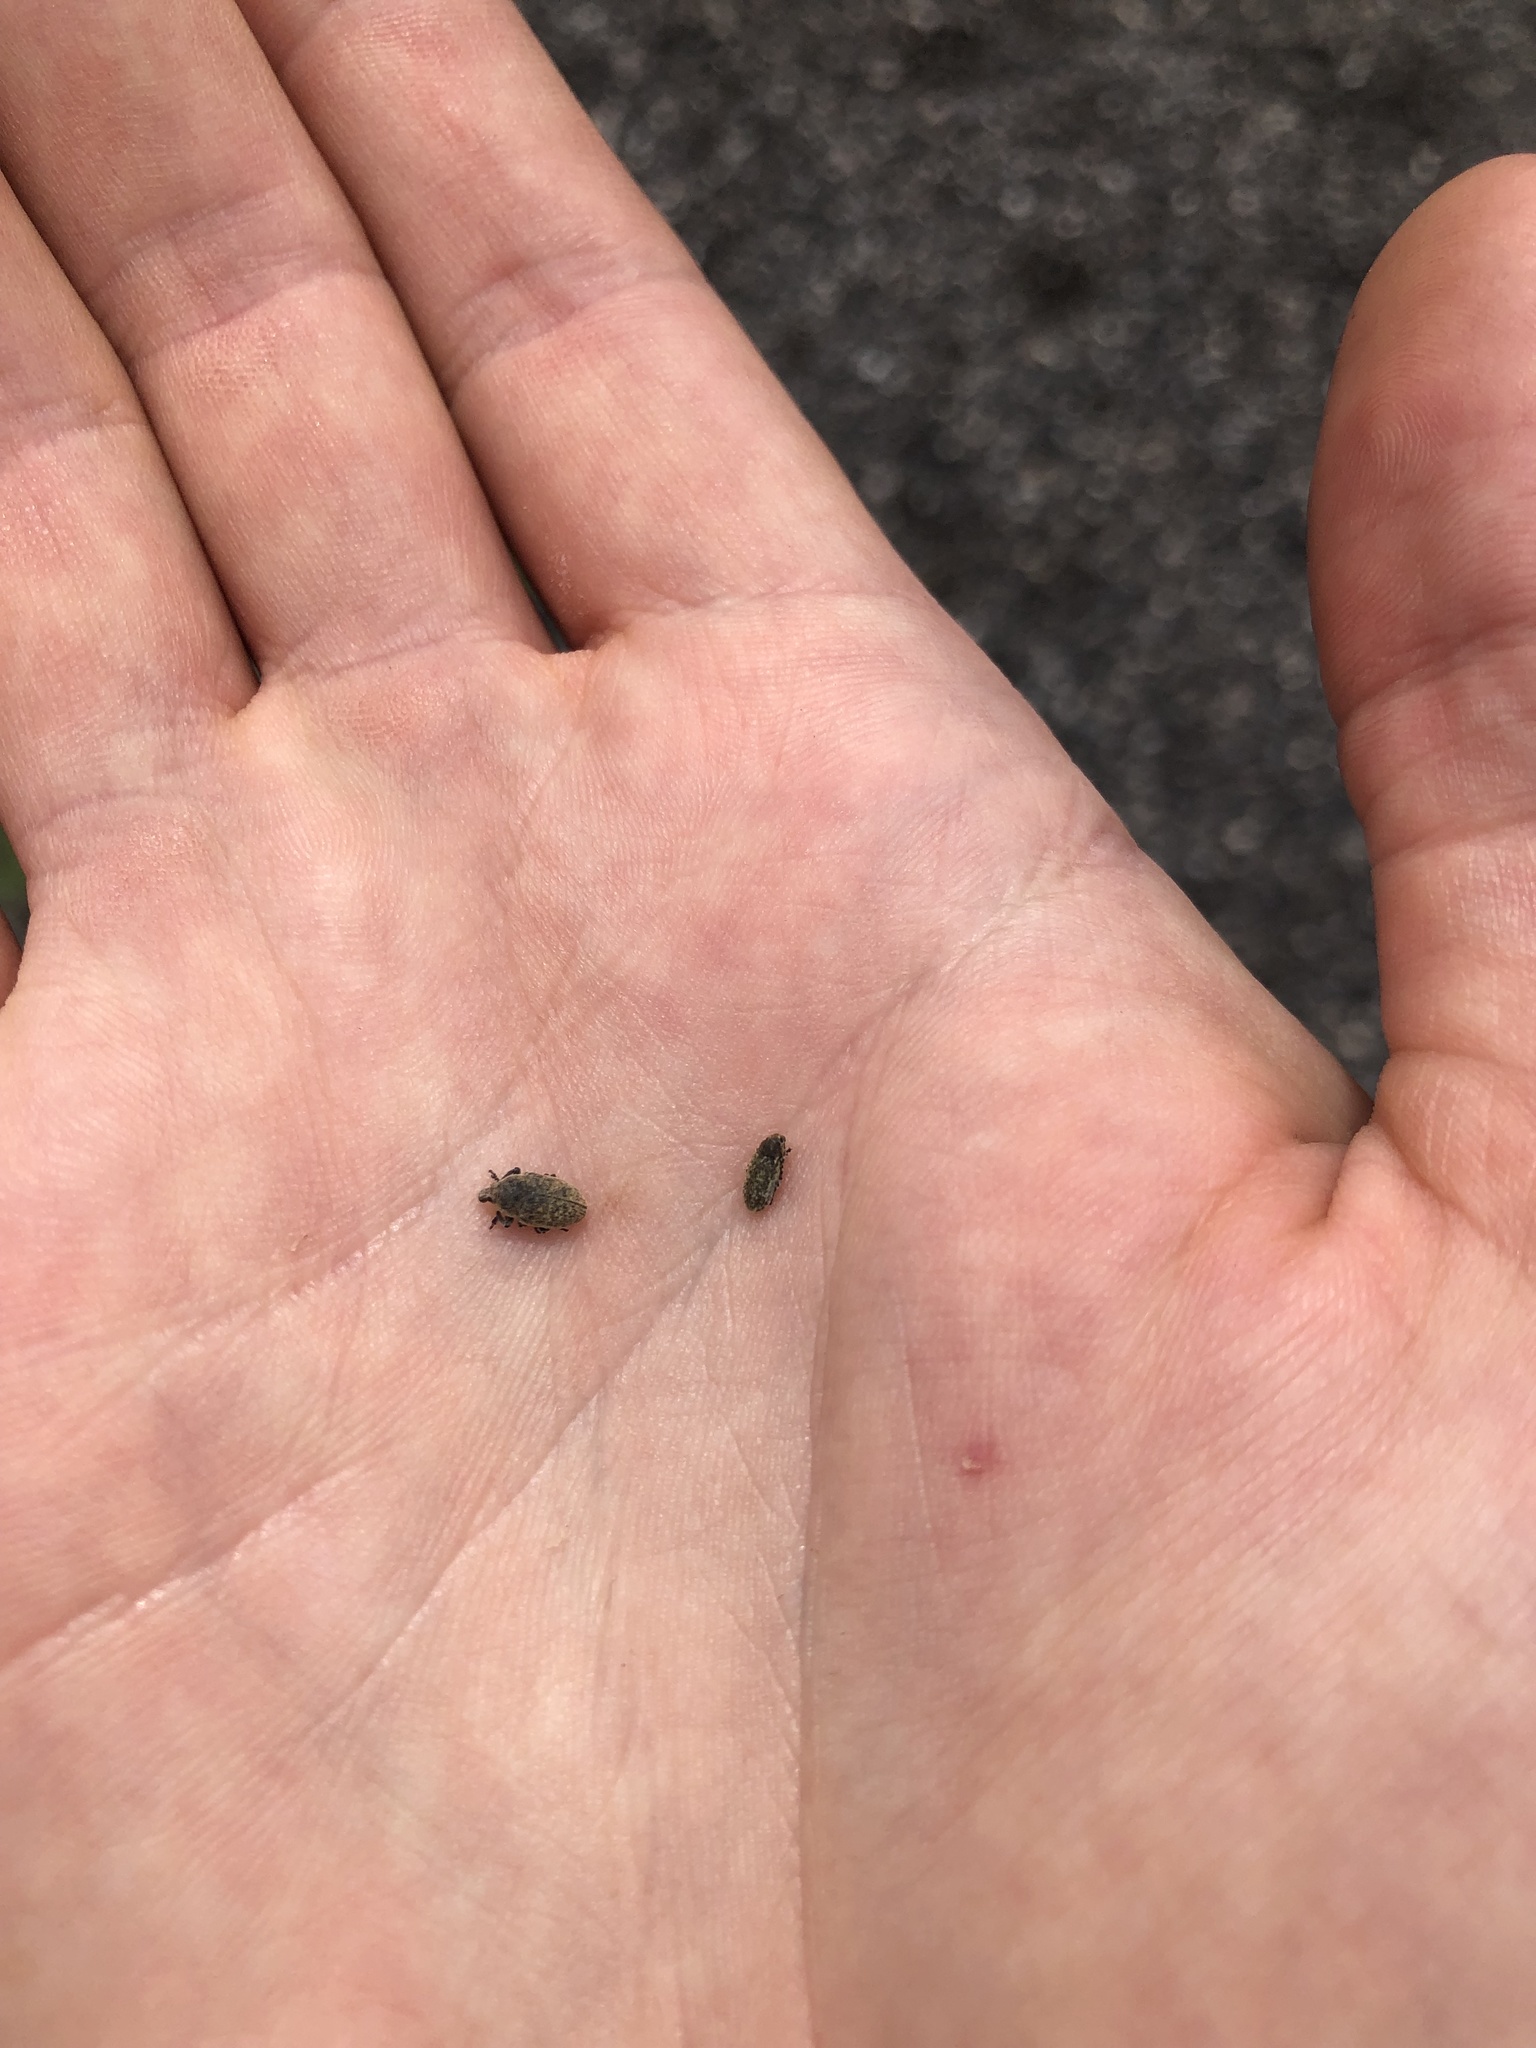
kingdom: Animalia
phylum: Arthropoda
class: Insecta
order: Coleoptera
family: Curculionidae
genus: Bangasternus
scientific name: Bangasternus fausti
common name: Broad-nosed knapweed seedhead weevil
